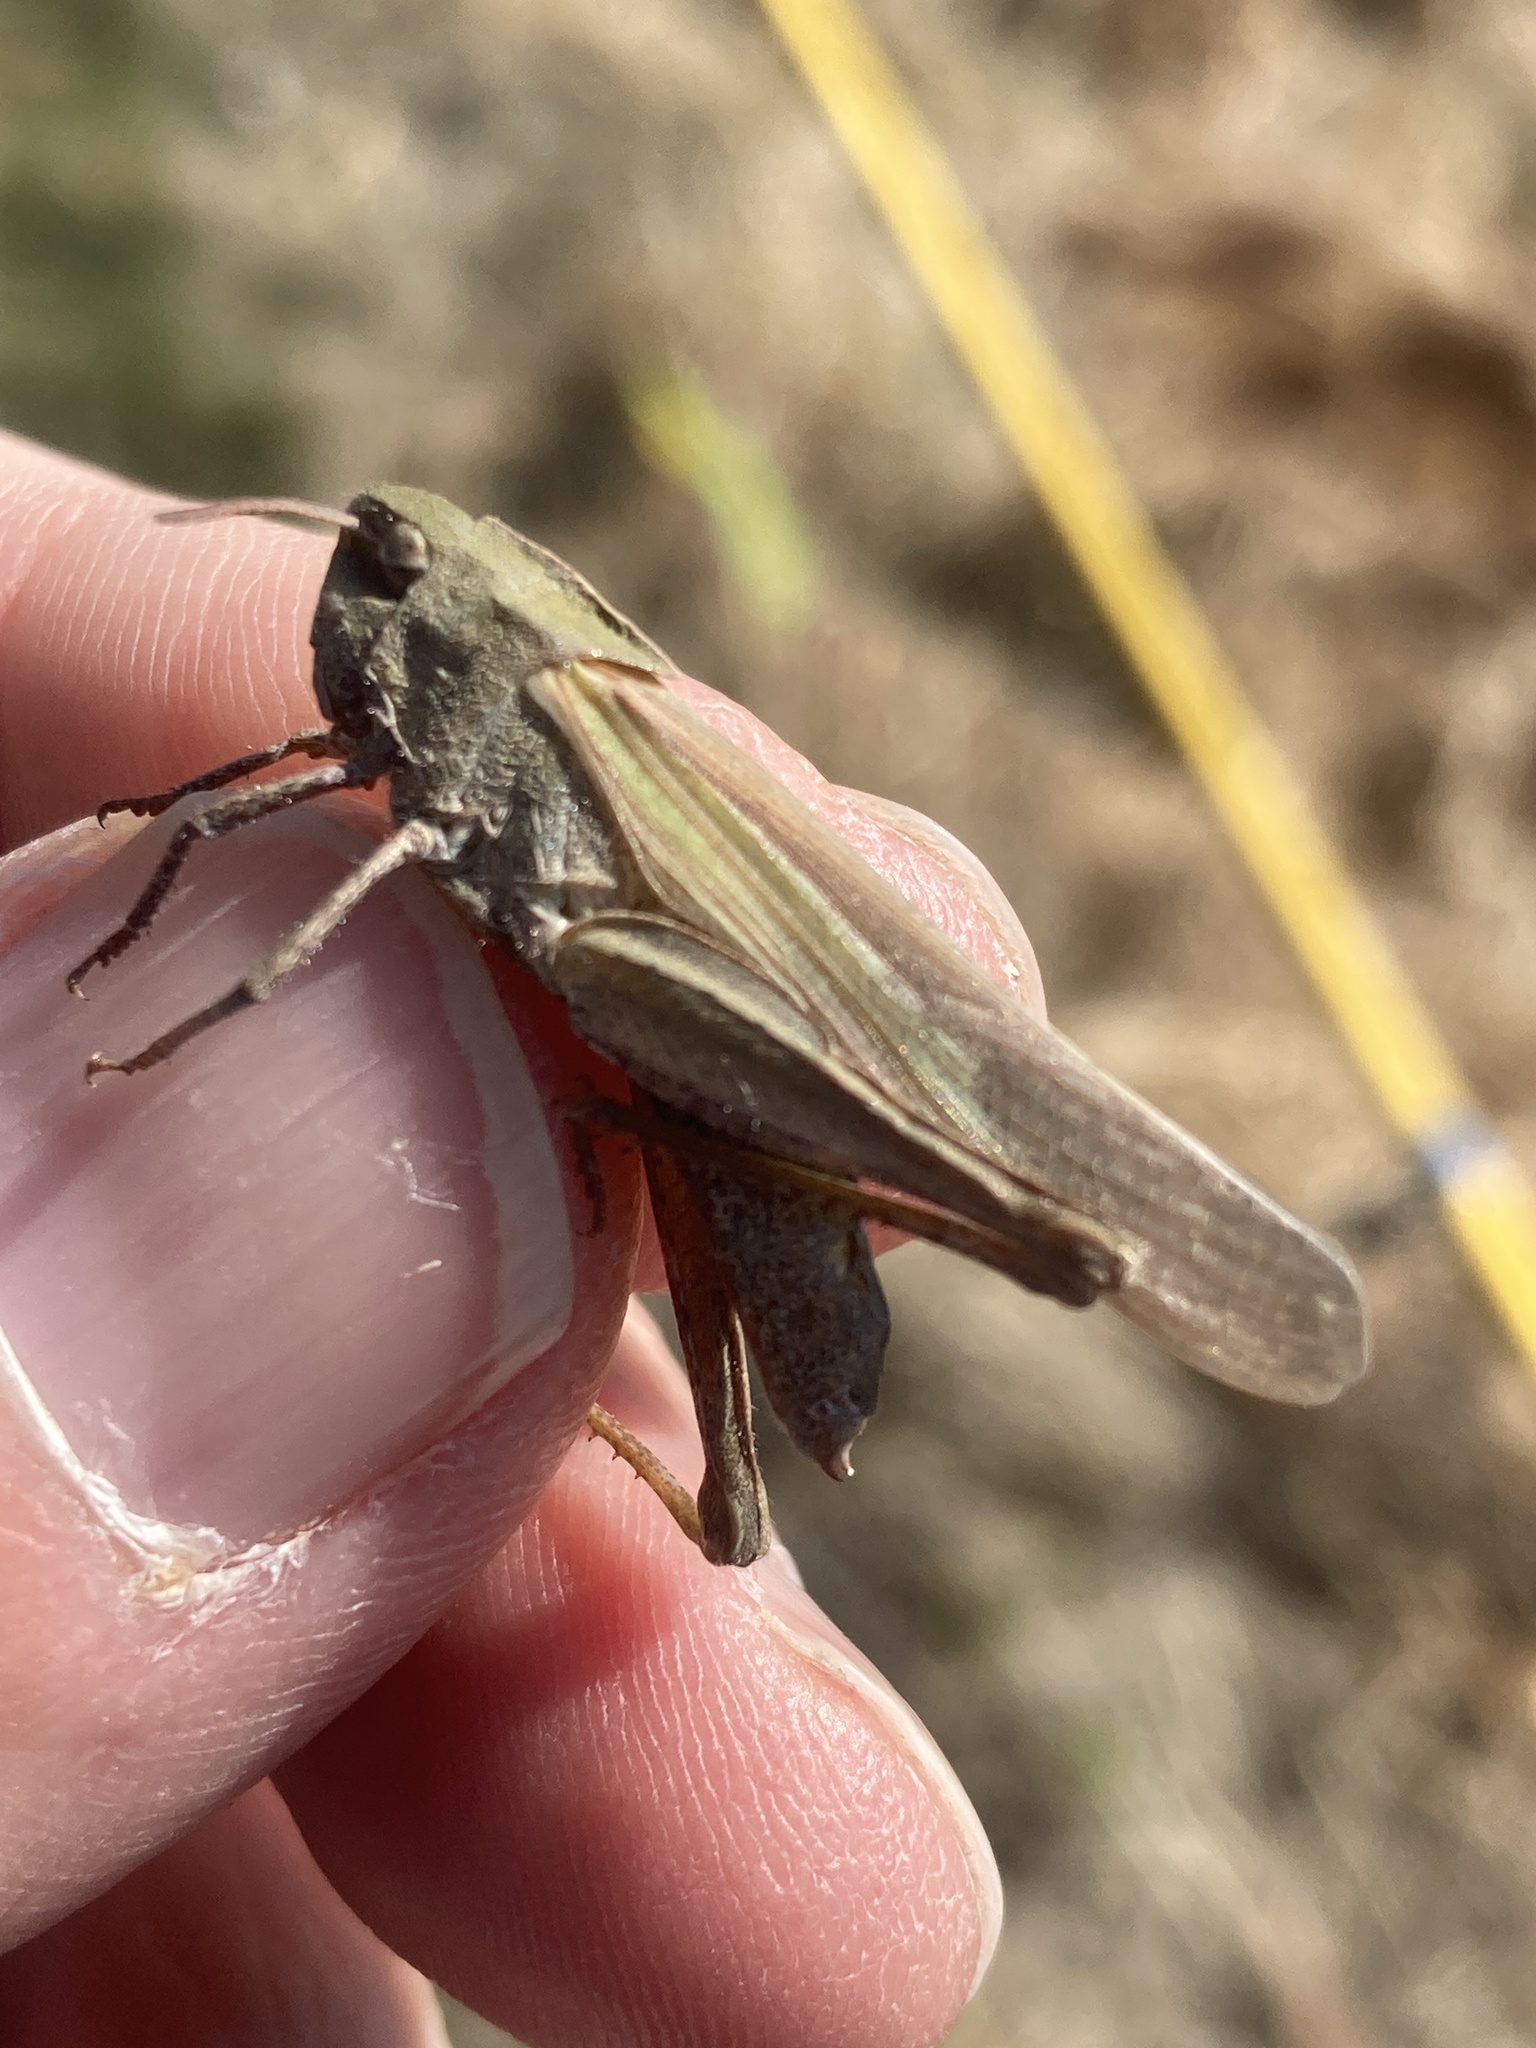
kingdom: Animalia
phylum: Arthropoda
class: Insecta
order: Orthoptera
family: Acrididae
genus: Chortophaga
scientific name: Chortophaga viridifasciata
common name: Green-striped grasshopper
